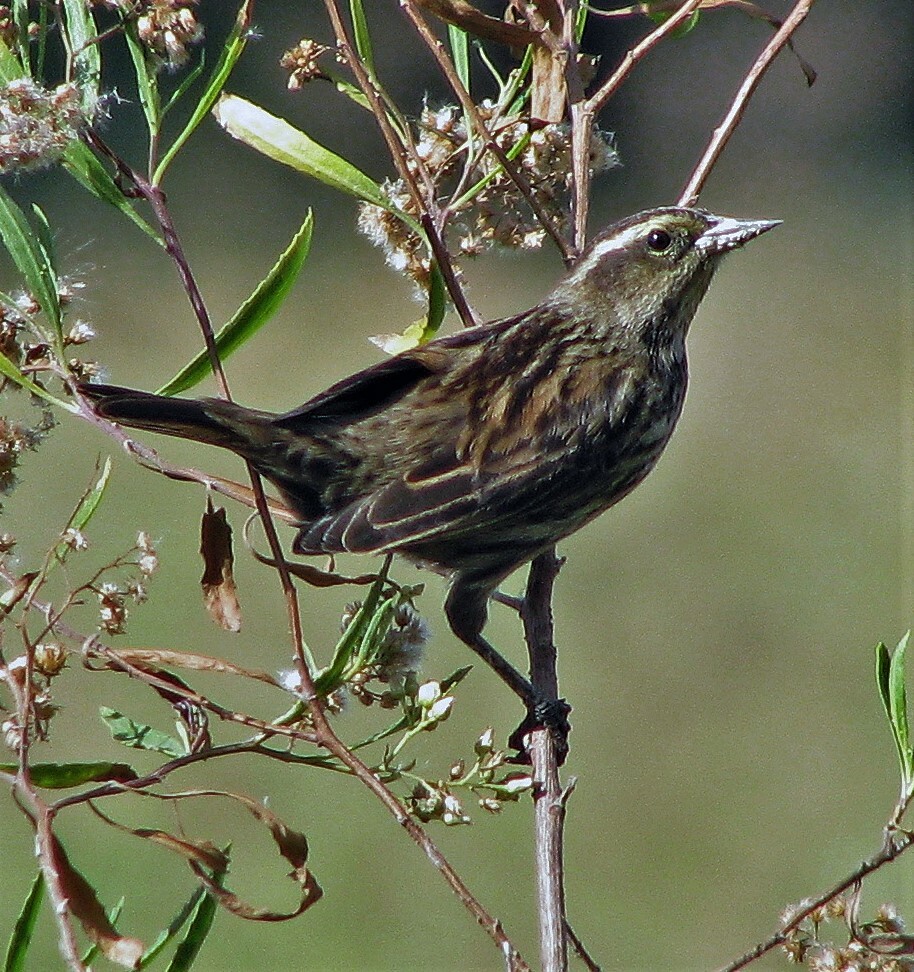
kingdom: Animalia
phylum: Chordata
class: Aves
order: Passeriformes
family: Icteridae
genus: Agelasticus
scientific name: Agelasticus thilius
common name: Yellow-winged blackbird
